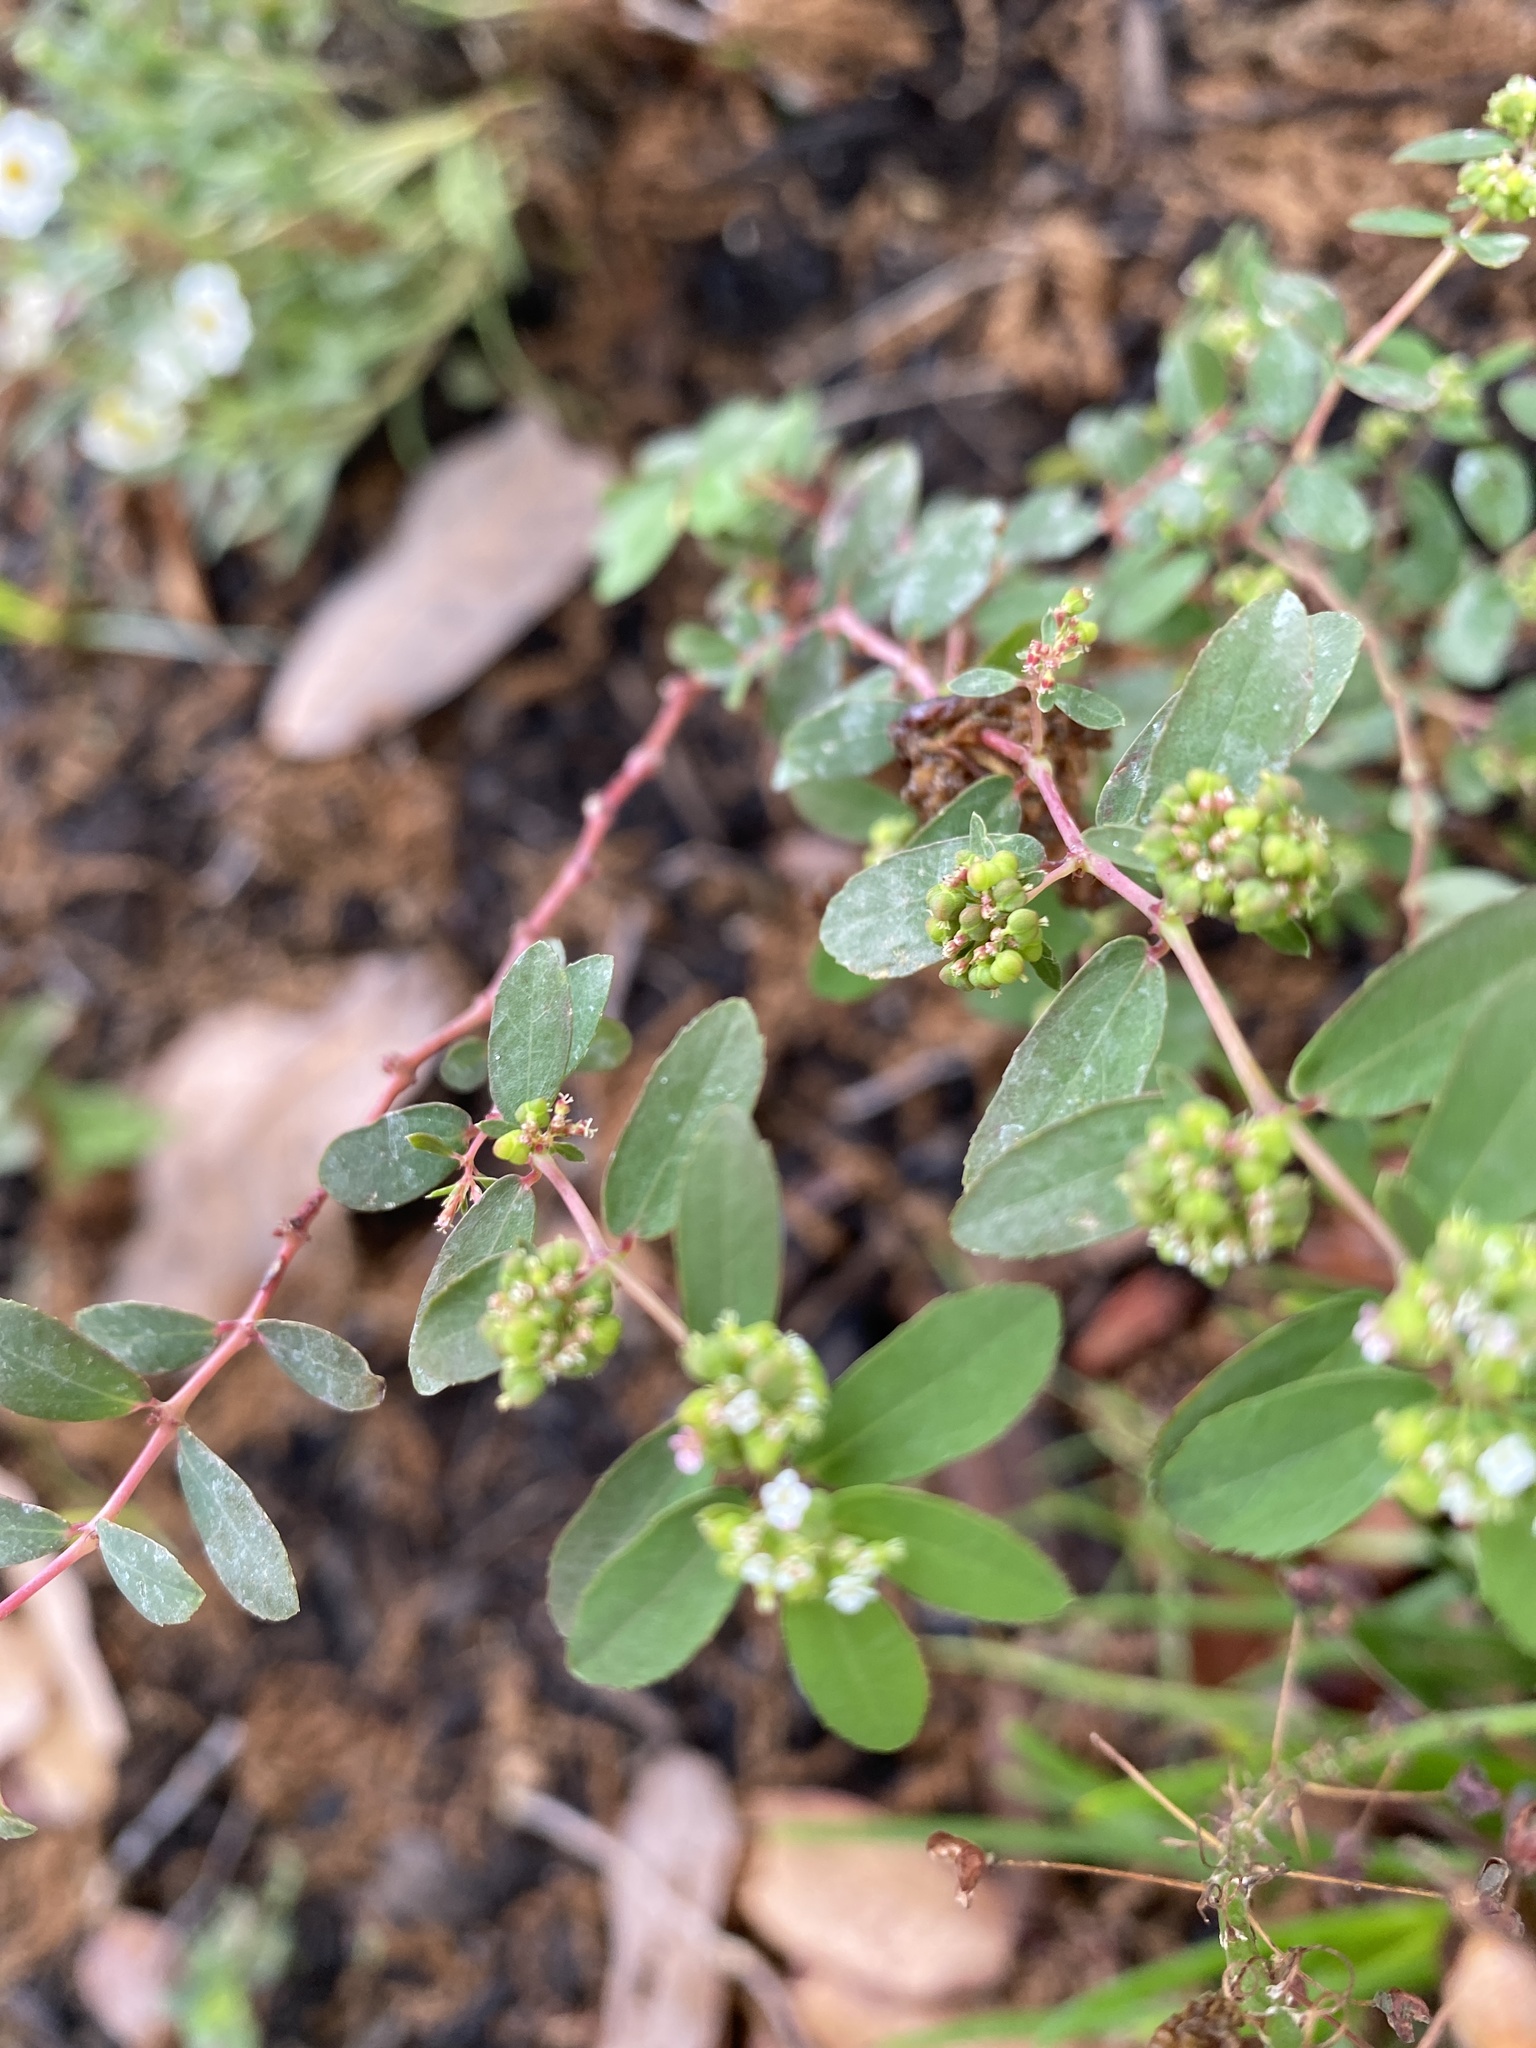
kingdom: Plantae
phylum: Tracheophyta
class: Magnoliopsida
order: Malpighiales
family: Euphorbiaceae
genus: Euphorbia
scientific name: Euphorbia hypericifolia
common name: Graceful sandmat
